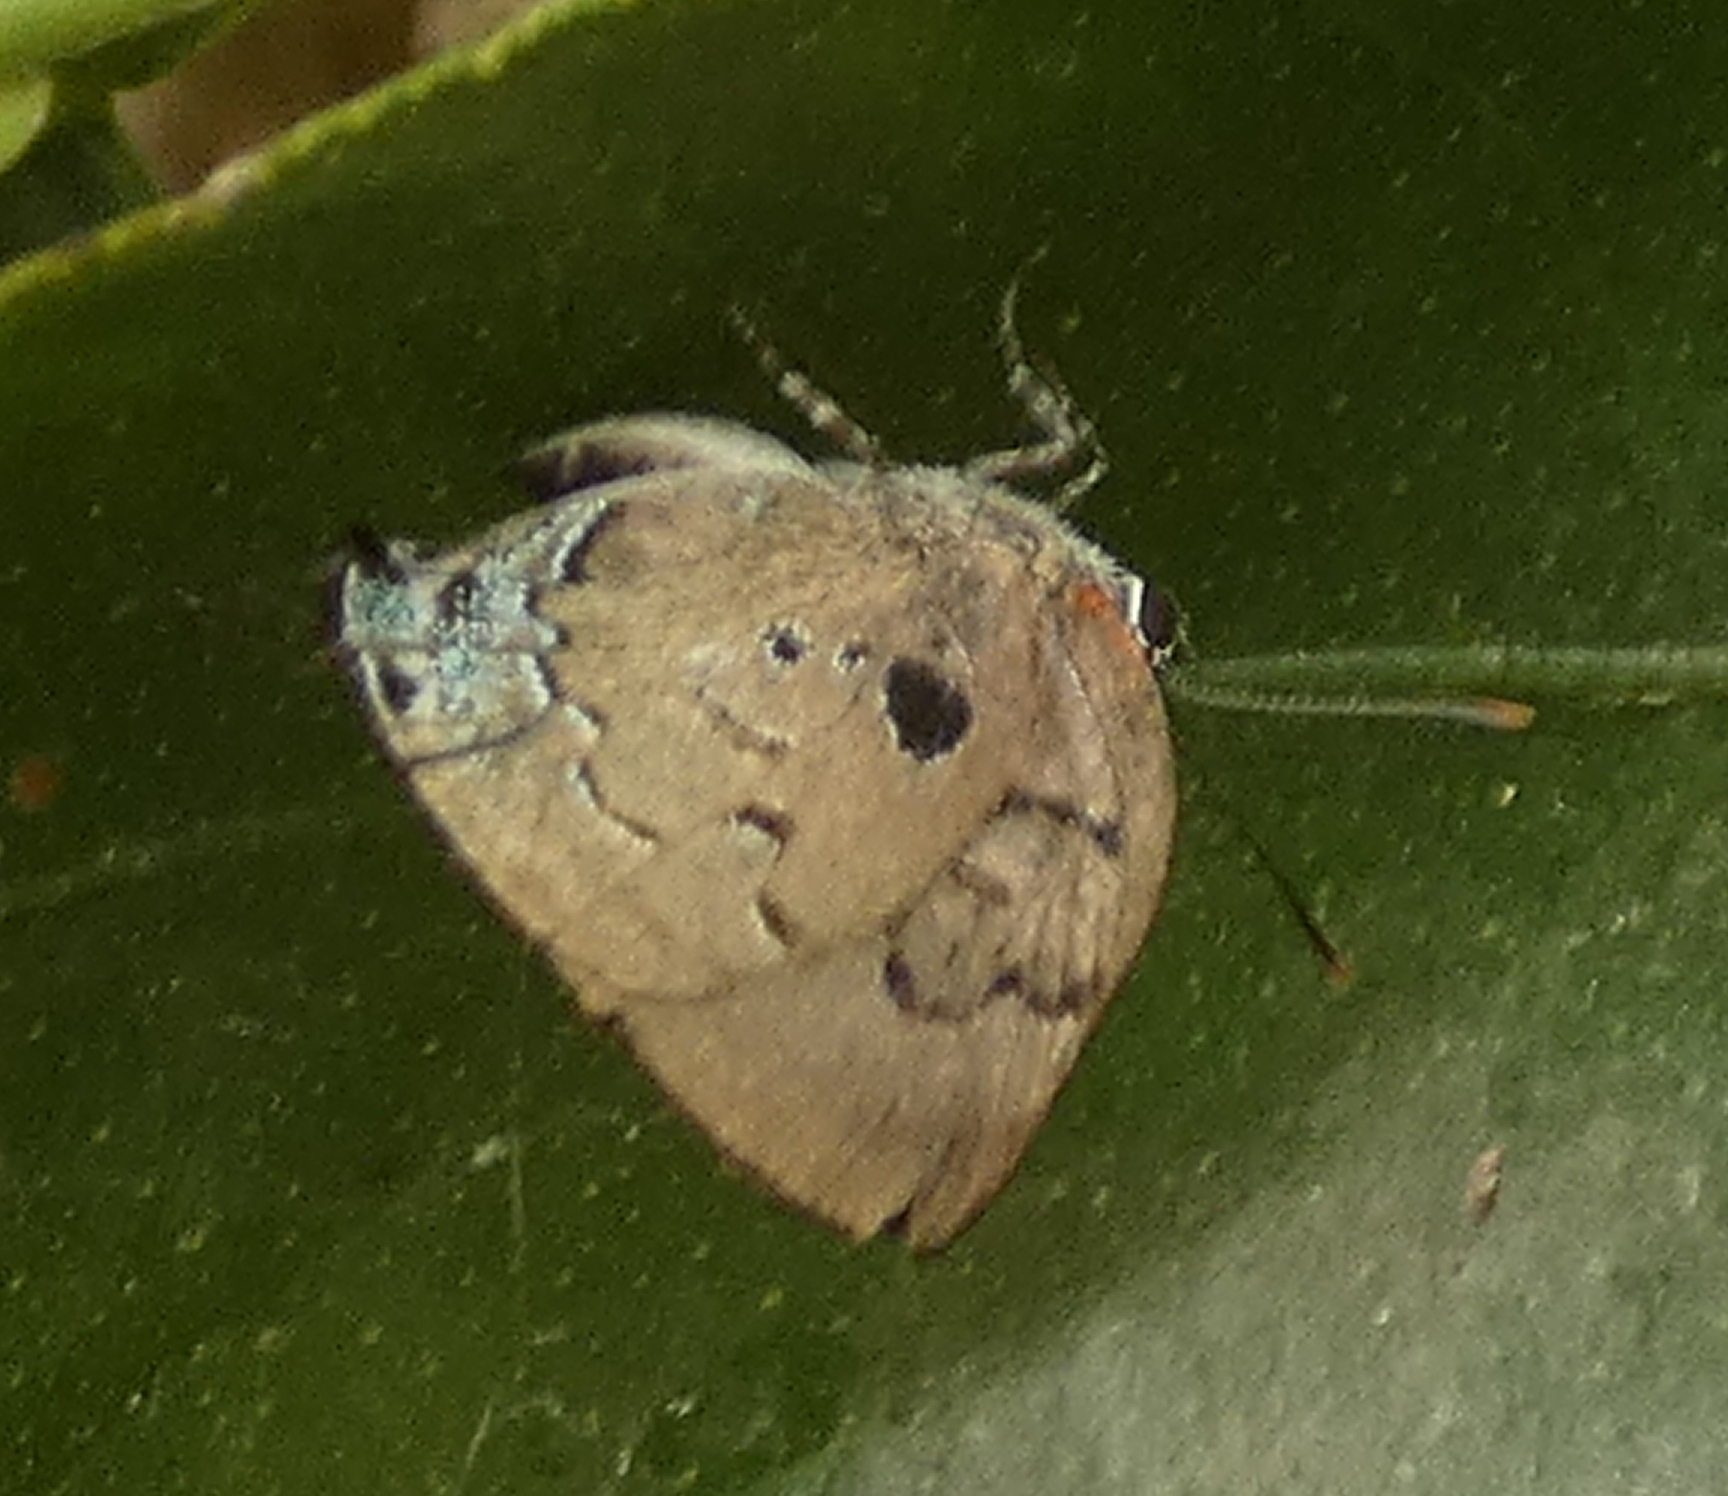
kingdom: Animalia
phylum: Arthropoda
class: Insecta
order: Lepidoptera
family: Lycaenidae
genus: Panthiades
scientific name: Panthiades hebraeus
